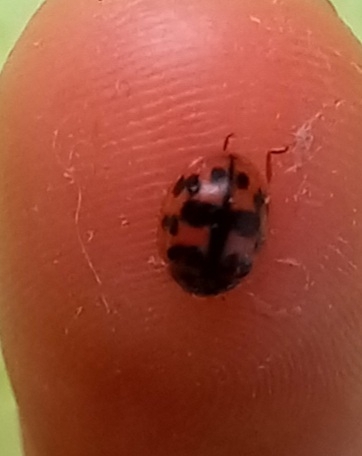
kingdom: Animalia
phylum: Arthropoda
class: Insecta
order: Coleoptera
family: Coccinellidae
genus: Oenopia
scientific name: Oenopia conglobata
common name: Ladybird beetle
